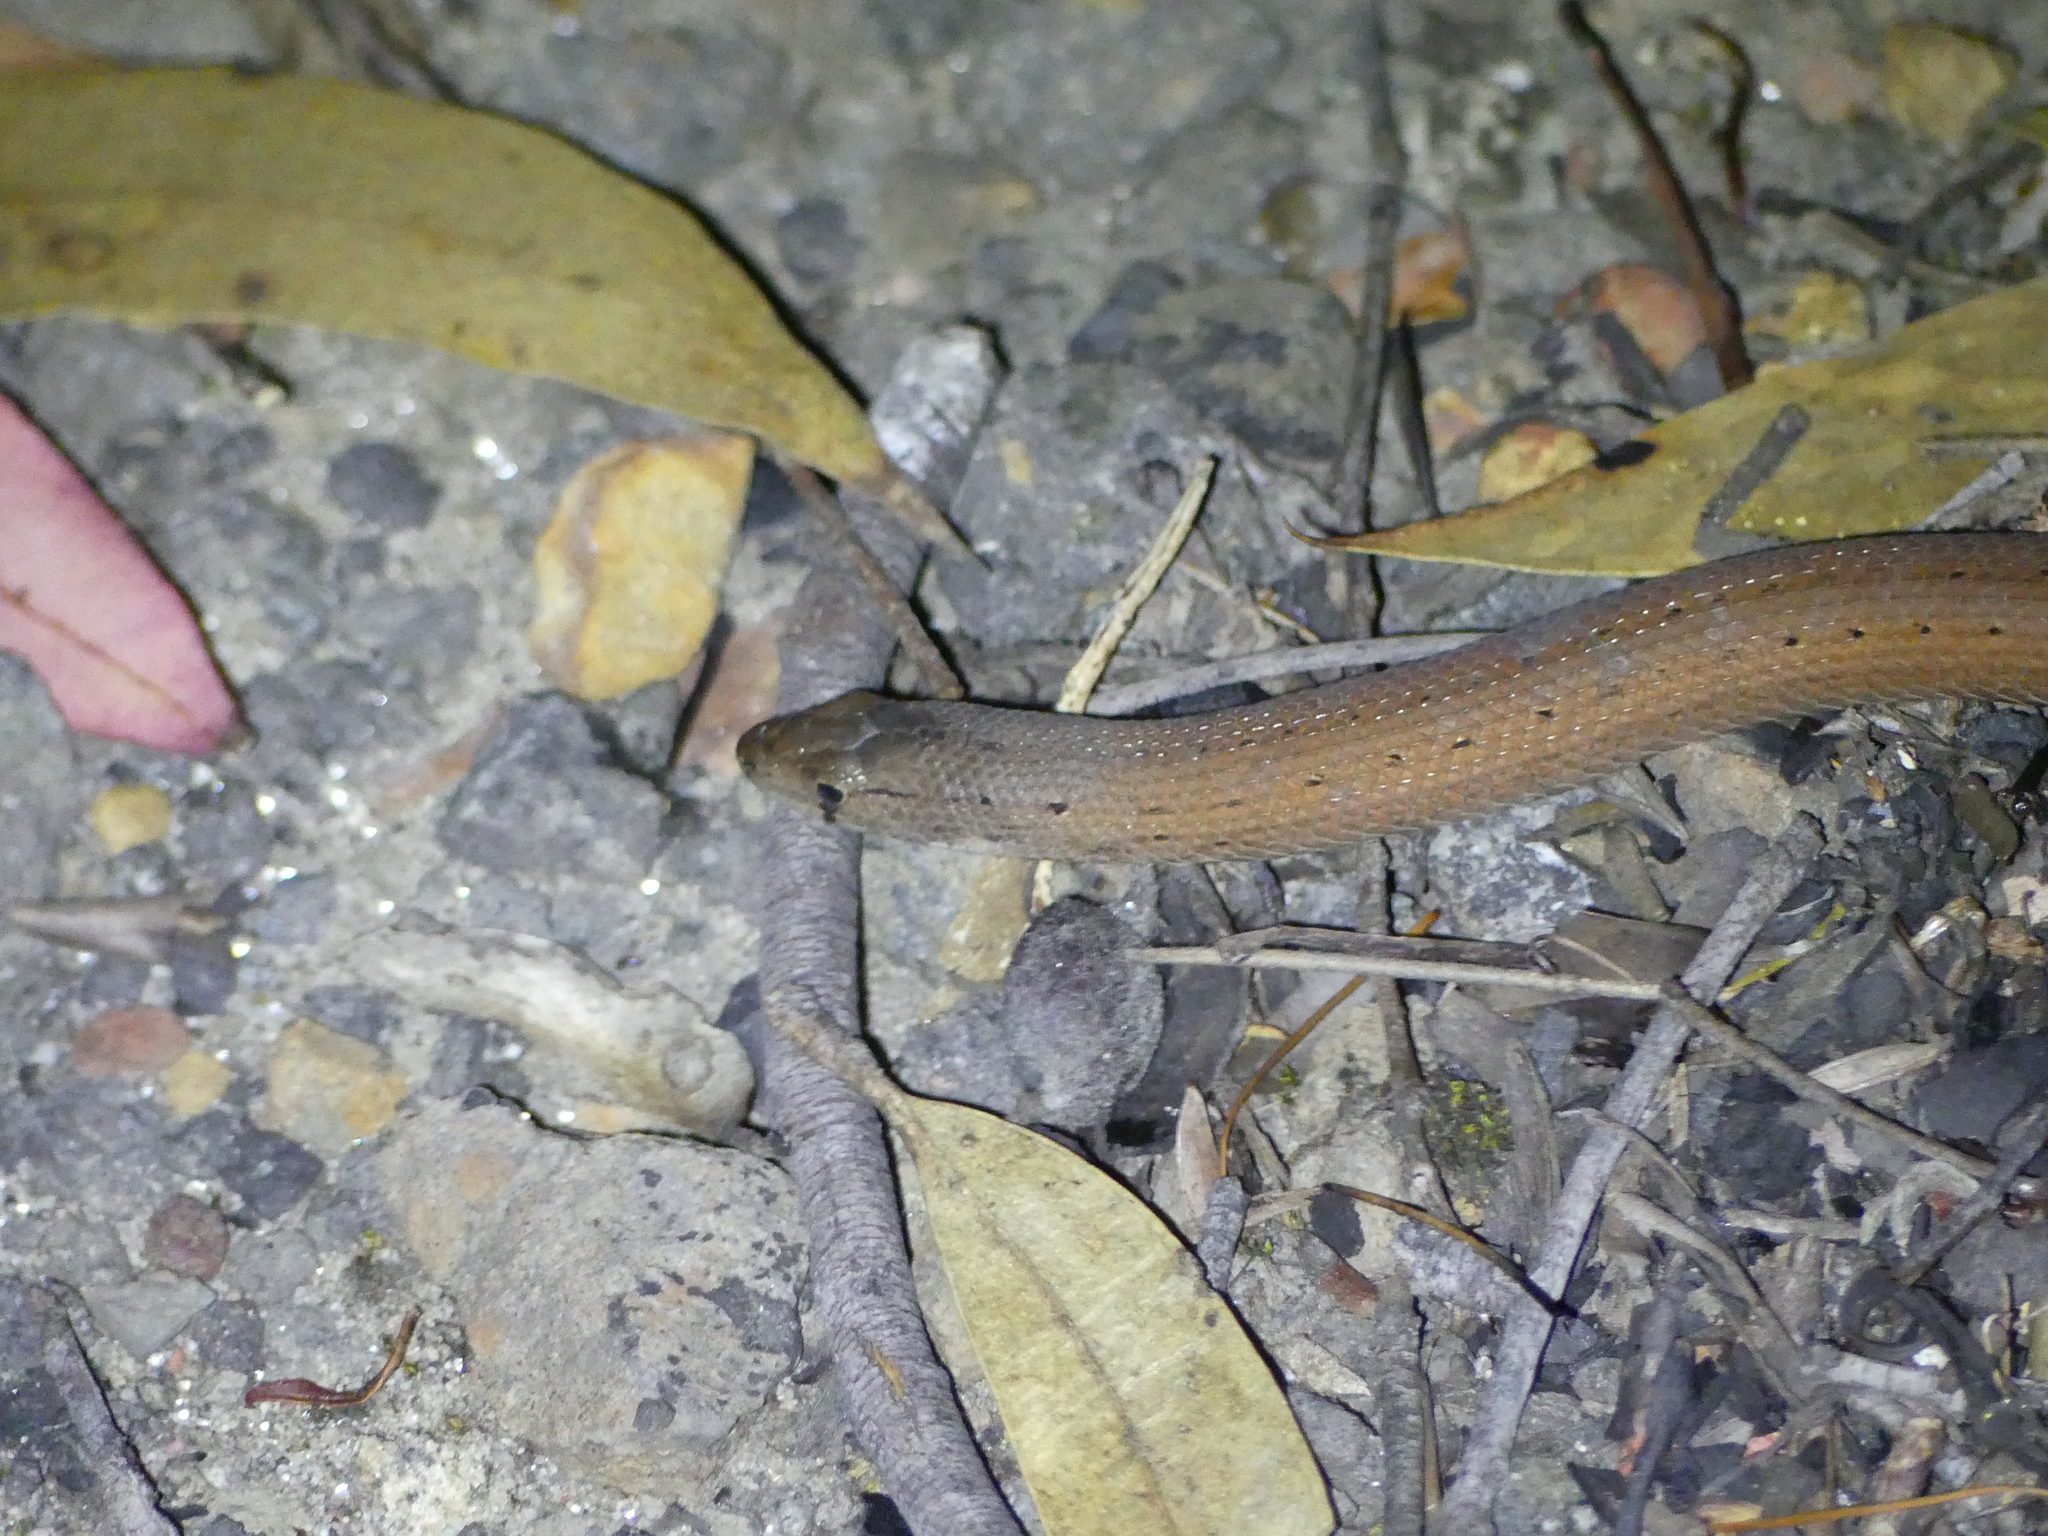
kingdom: Animalia
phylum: Chordata
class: Squamata
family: Pygopodidae
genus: Pygopus
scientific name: Pygopus lepidopodus
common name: Southern scaly-foot
